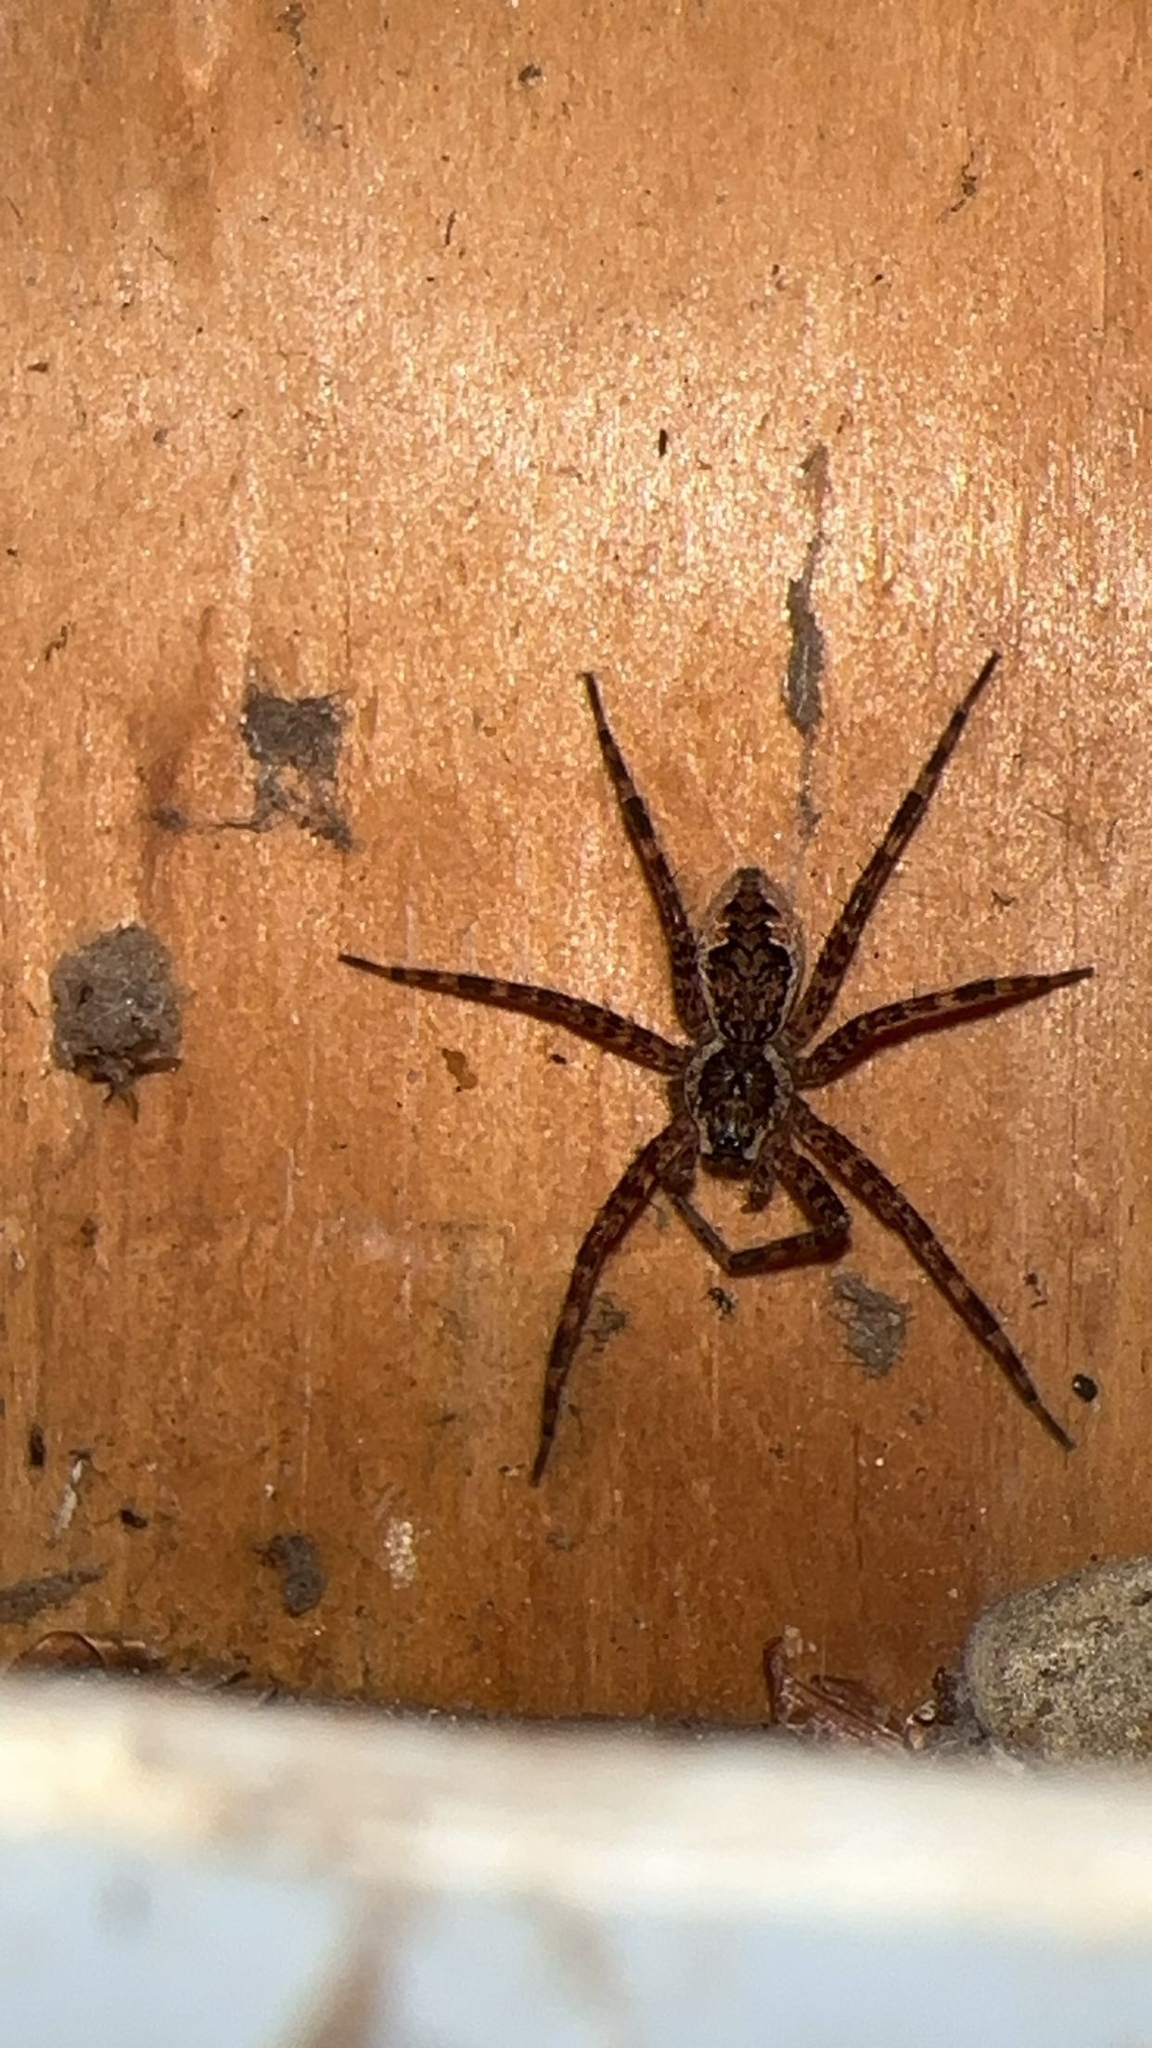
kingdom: Animalia
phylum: Arthropoda
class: Arachnida
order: Araneae
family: Pisauridae
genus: Dolomedes
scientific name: Dolomedes tenebrosus
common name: Dark fishing spider
